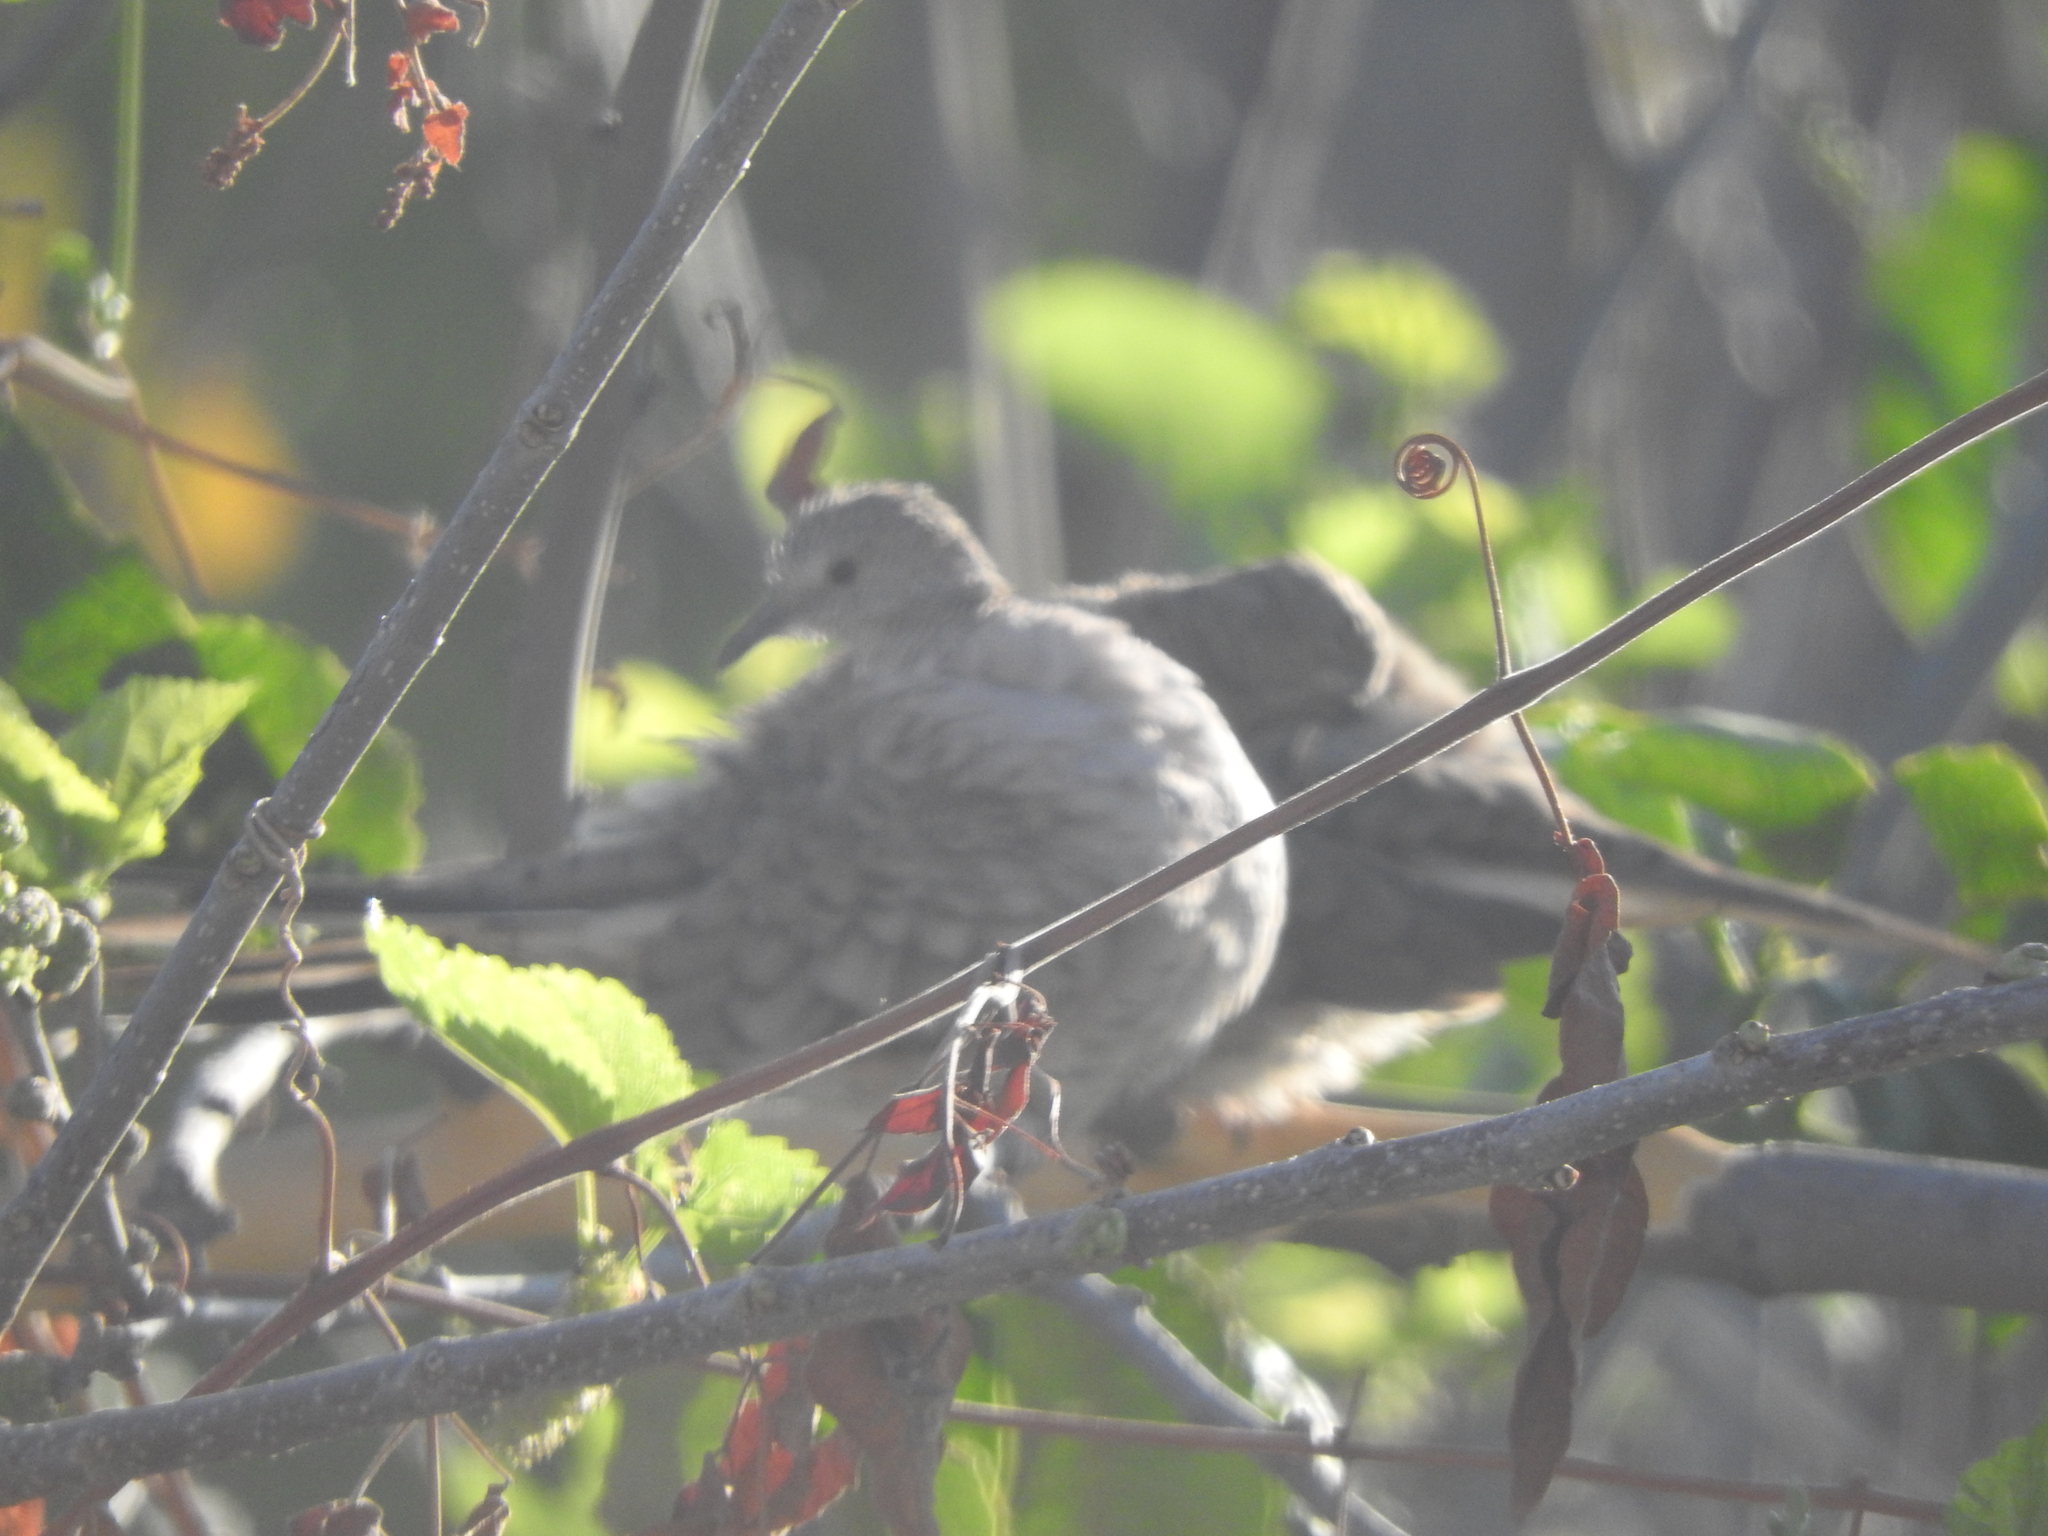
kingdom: Animalia
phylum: Chordata
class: Aves
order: Columbiformes
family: Columbidae
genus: Columbina
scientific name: Columbina inca
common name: Inca dove
